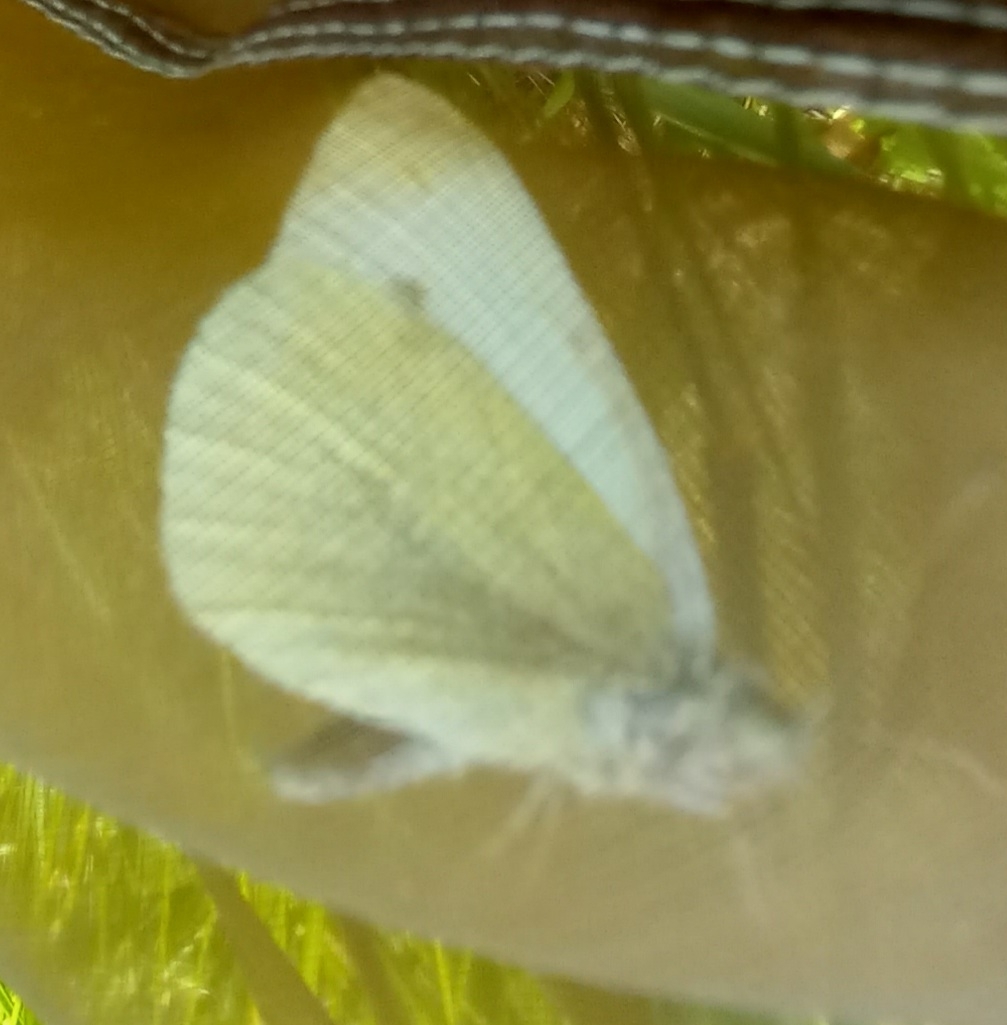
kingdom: Animalia
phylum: Arthropoda
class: Insecta
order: Lepidoptera
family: Pieridae
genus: Pieris
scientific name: Pieris rapae
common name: Small white
